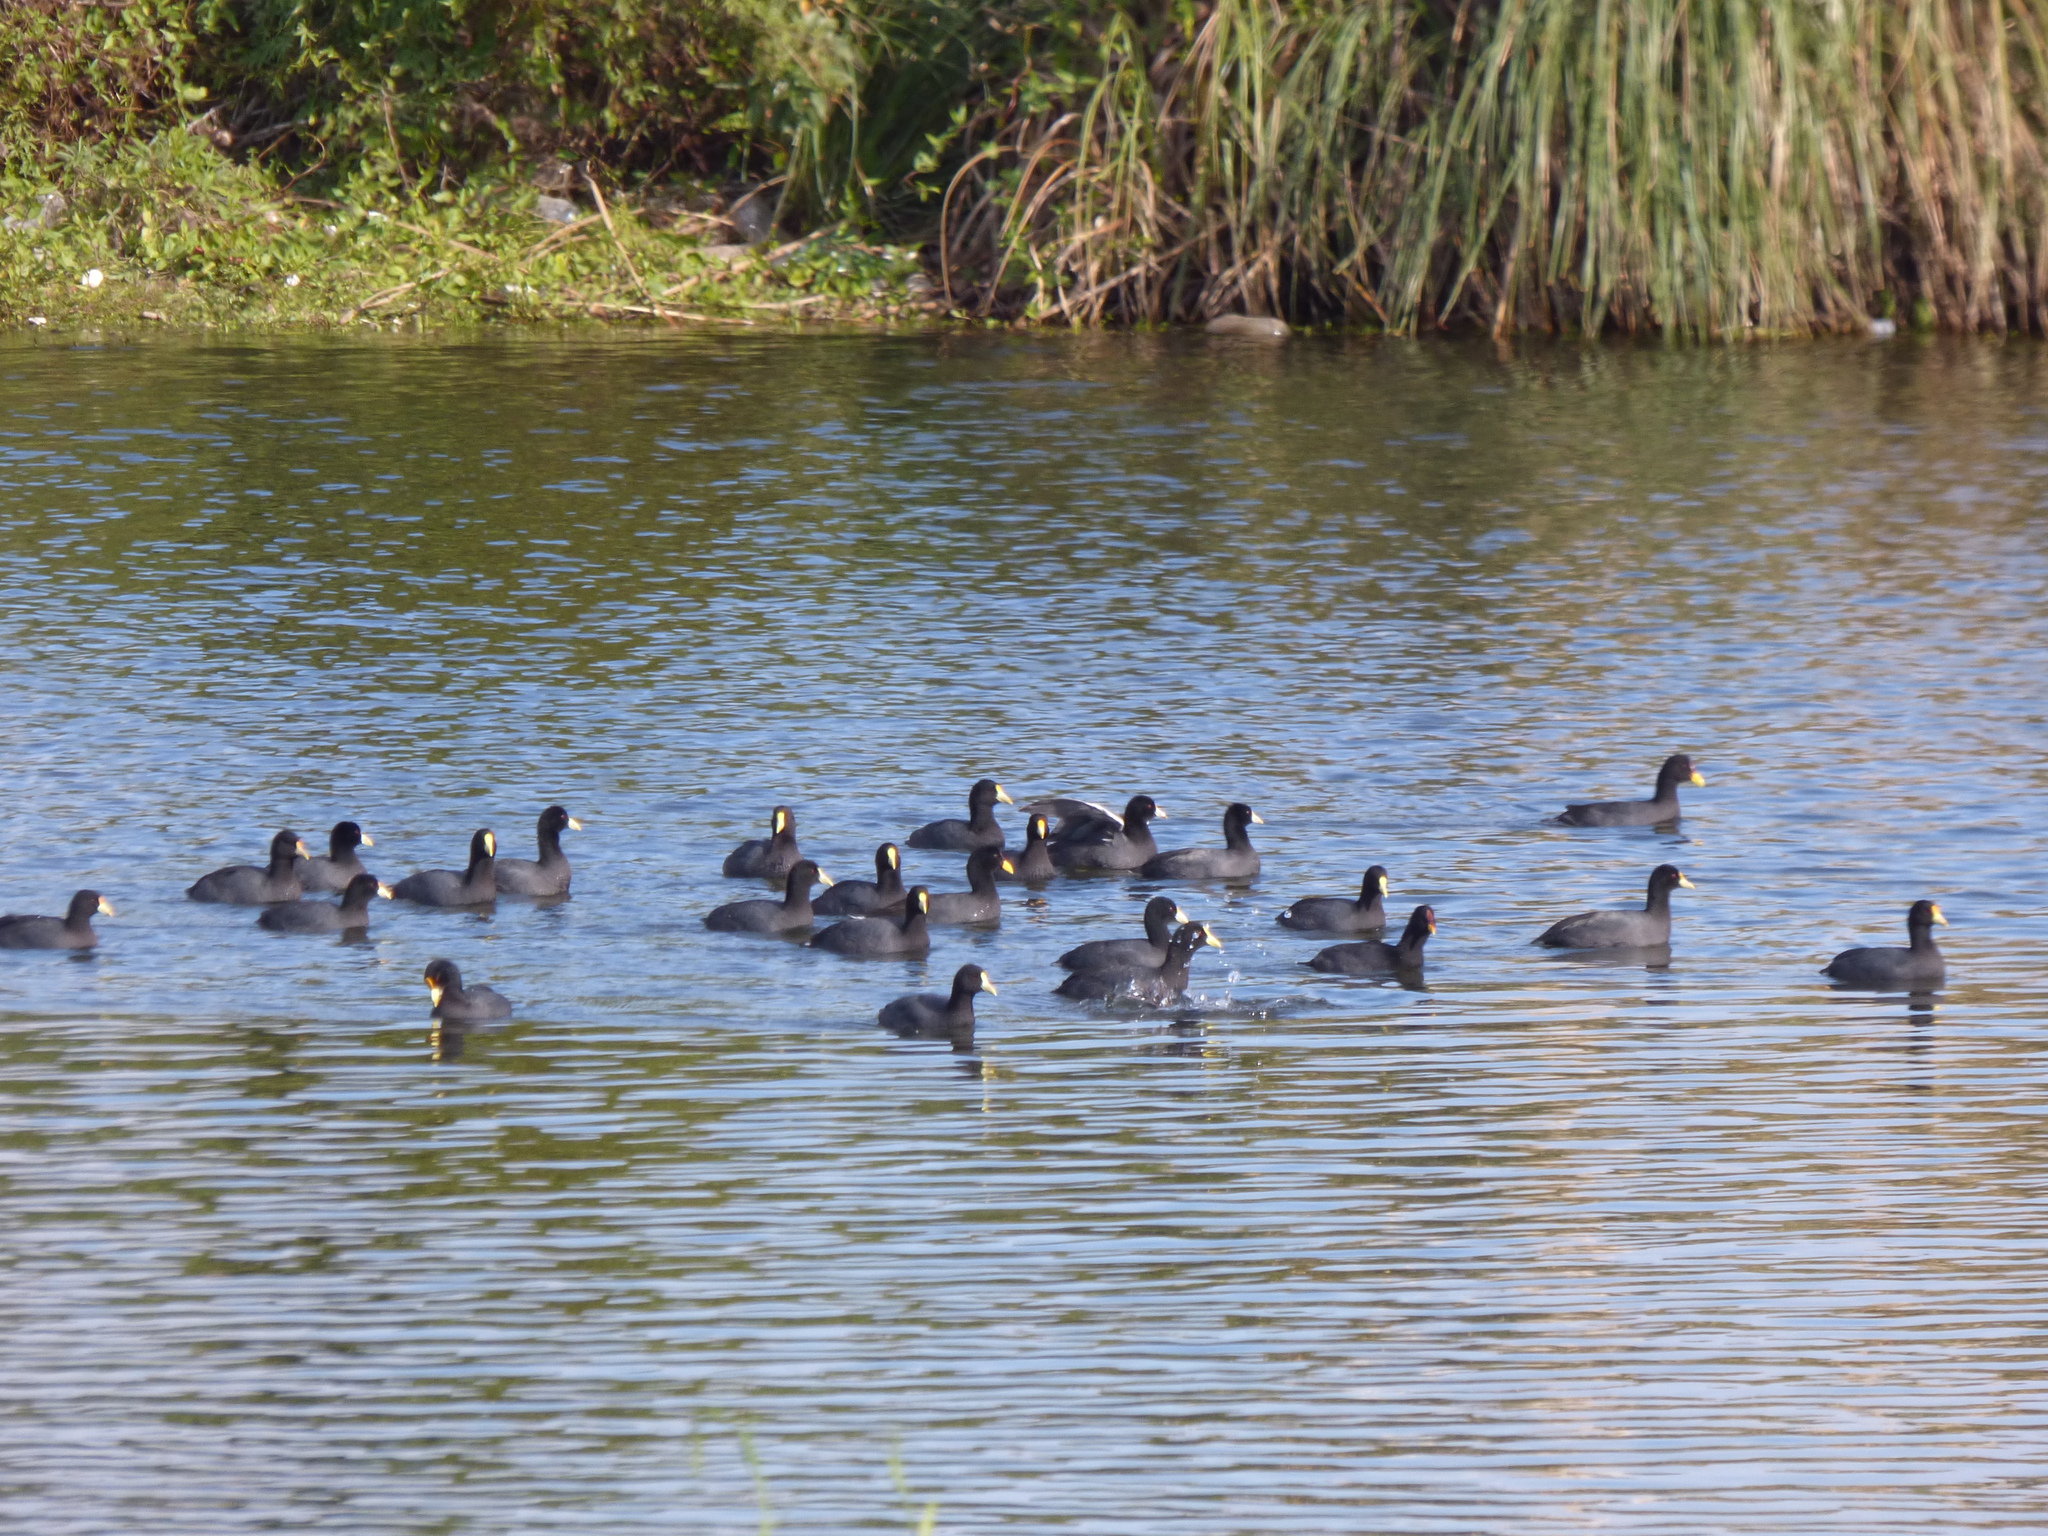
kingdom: Animalia
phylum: Chordata
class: Aves
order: Gruiformes
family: Rallidae
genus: Fulica
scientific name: Fulica leucoptera
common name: White-winged coot
